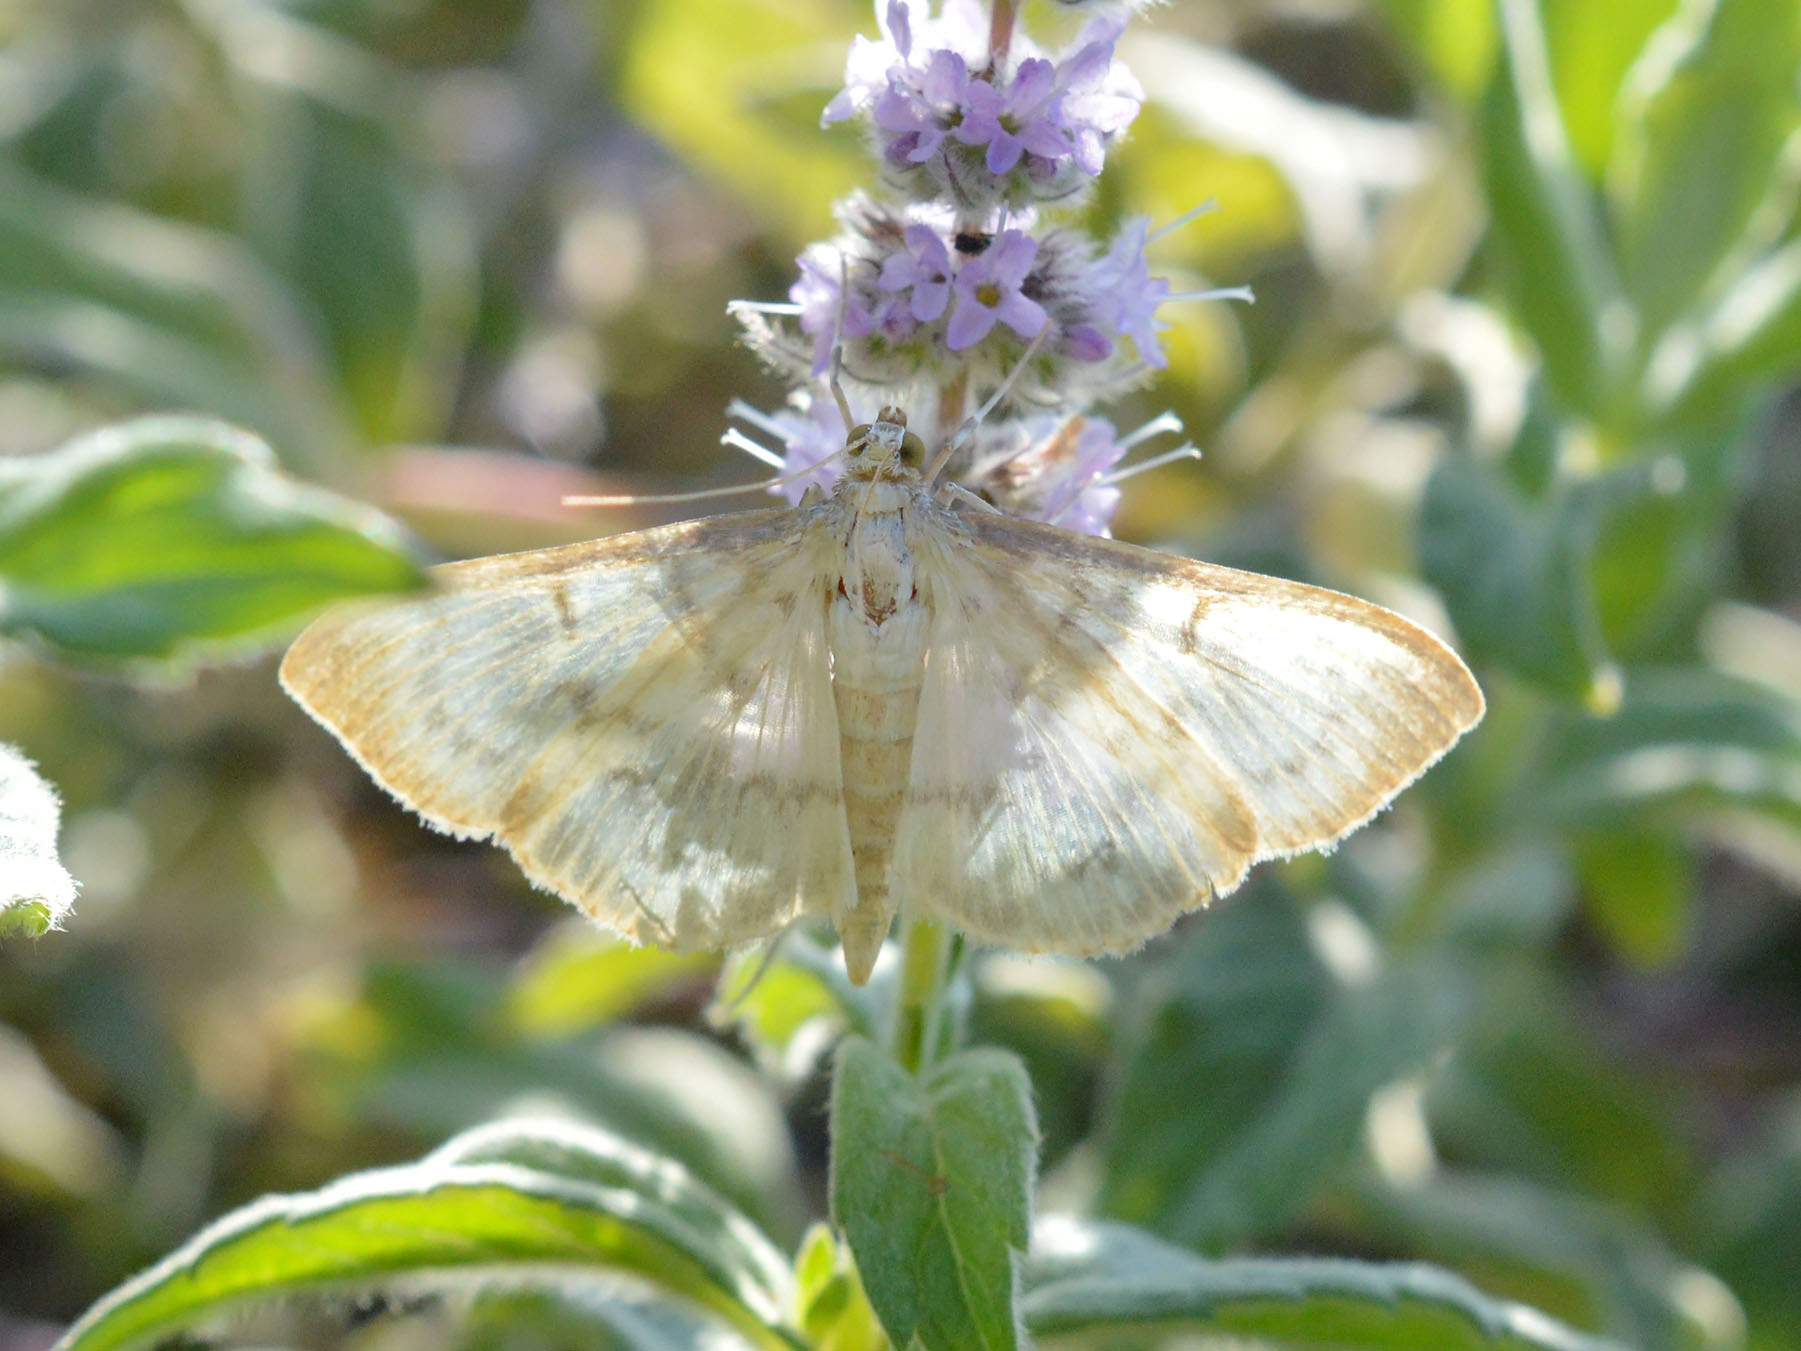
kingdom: Animalia
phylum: Arthropoda
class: Insecta
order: Lepidoptera
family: Crambidae
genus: Patania
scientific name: Patania ruralis
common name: Mother of pearl
